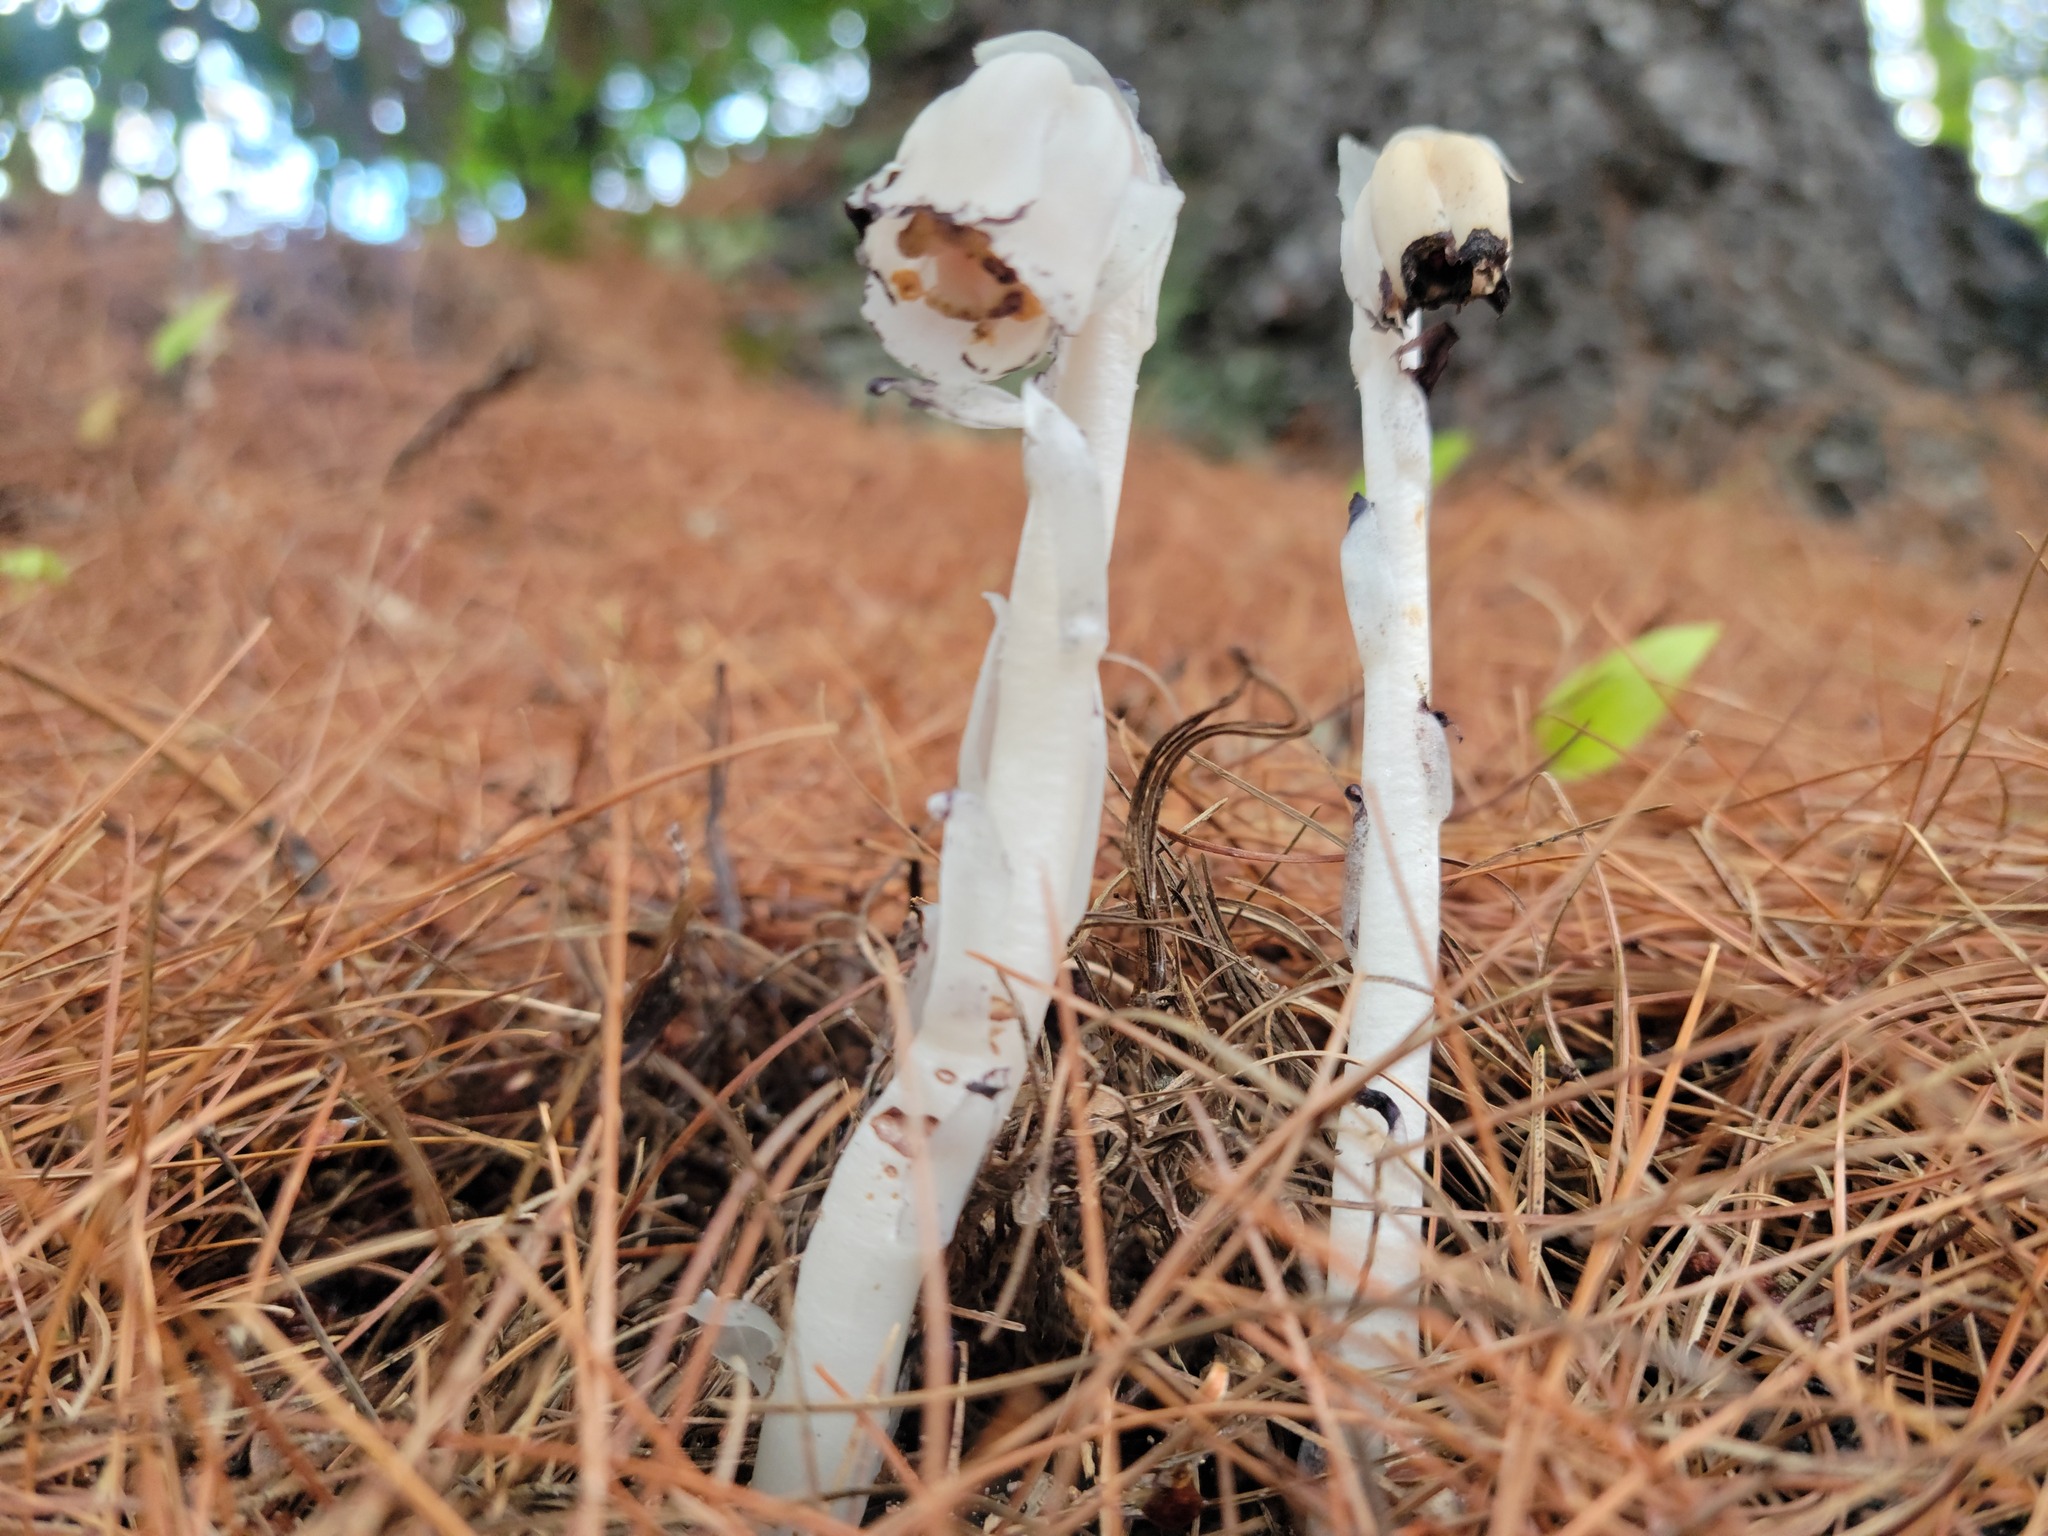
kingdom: Plantae
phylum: Tracheophyta
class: Magnoliopsida
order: Ericales
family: Ericaceae
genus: Monotropa
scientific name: Monotropa uniflora
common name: Convulsion root
